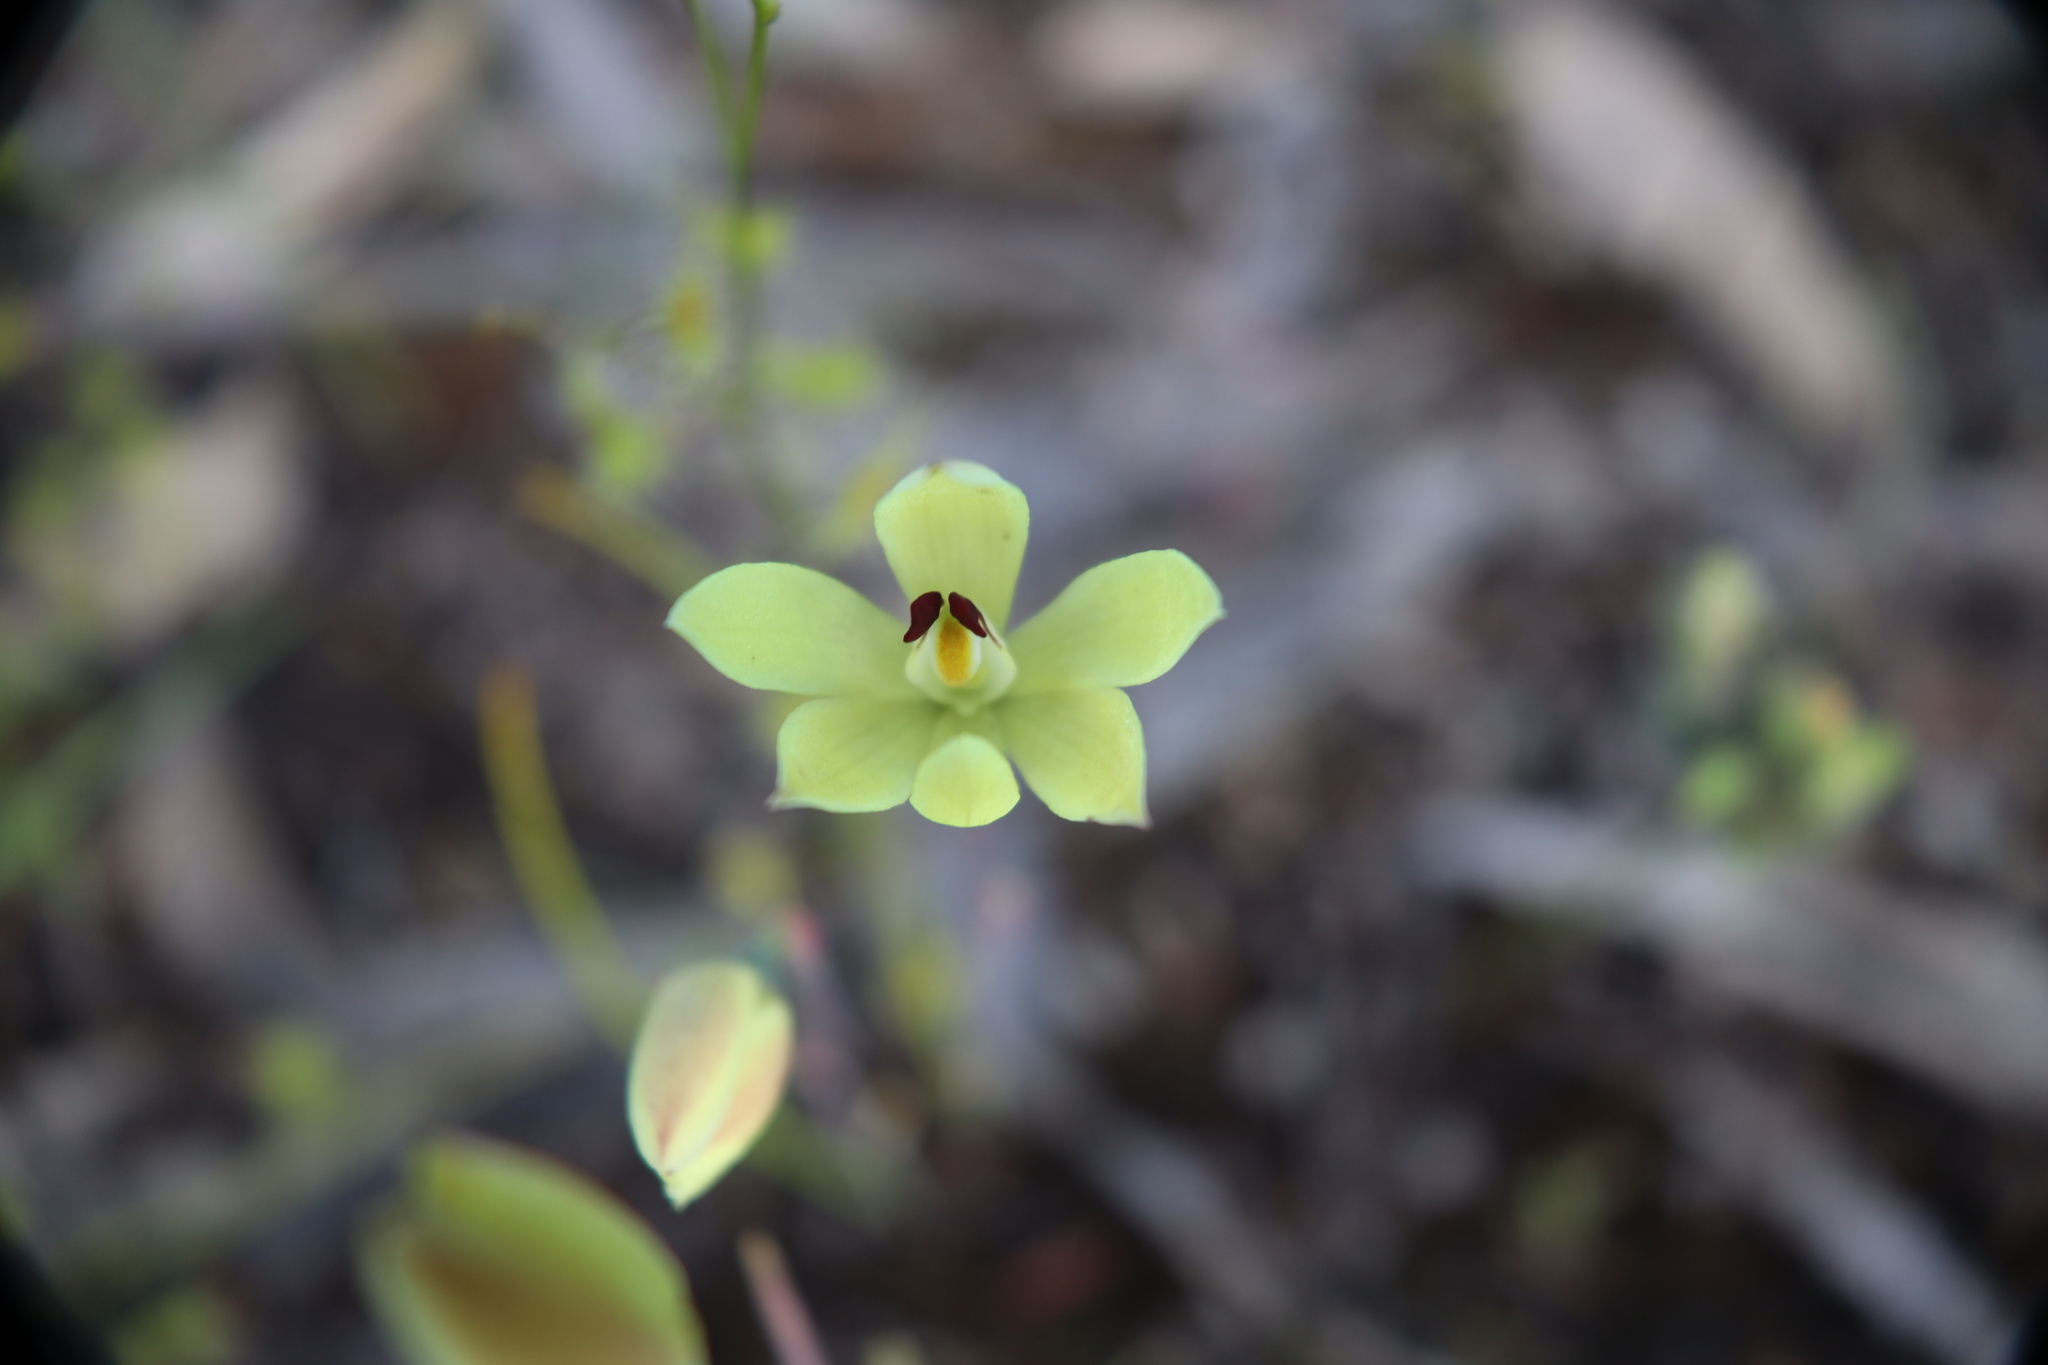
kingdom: Plantae
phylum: Tracheophyta
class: Liliopsida
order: Asparagales
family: Orchidaceae
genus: Thelymitra
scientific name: Thelymitra antennifera
